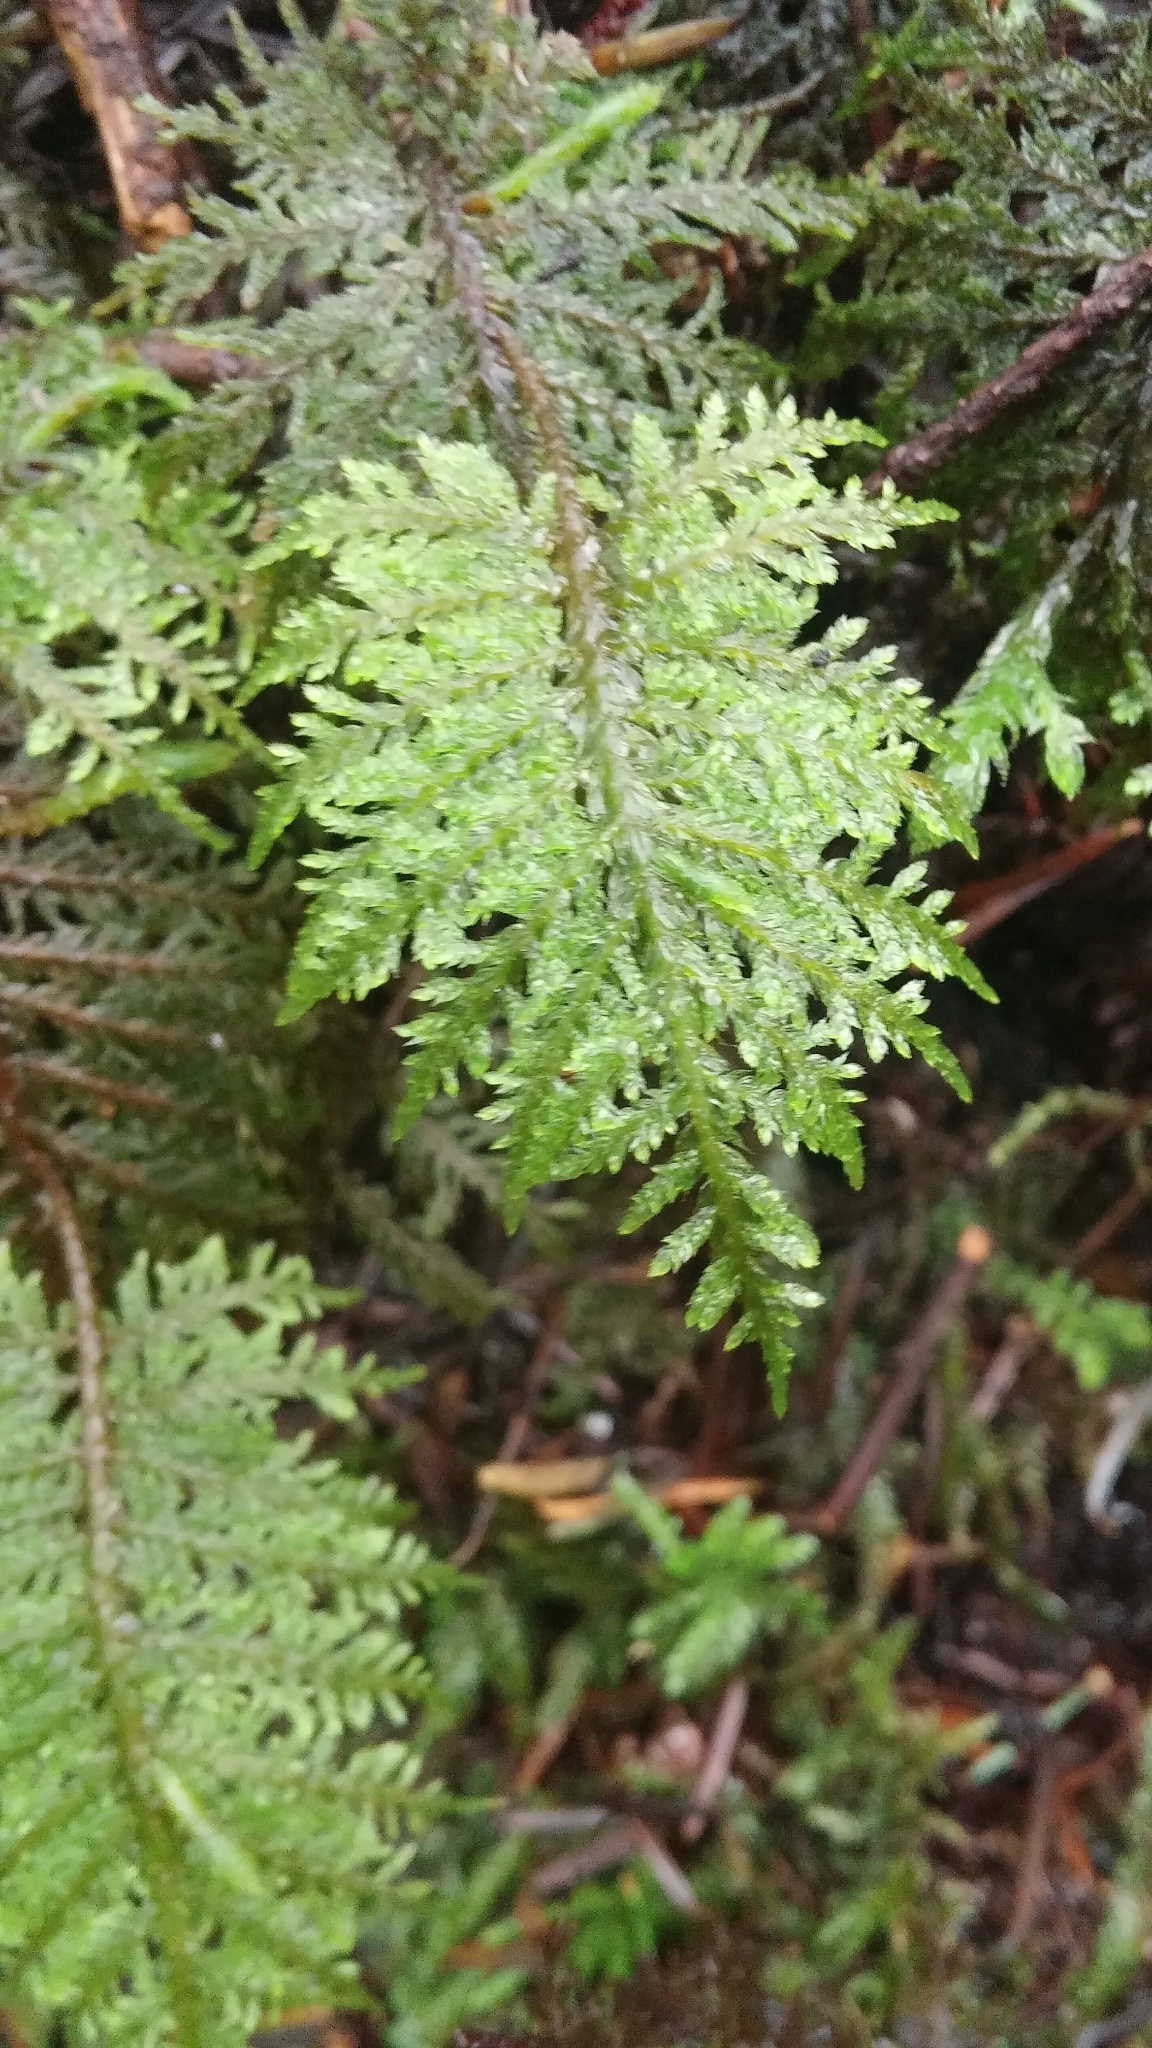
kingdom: Plantae
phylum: Bryophyta
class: Bryopsida
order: Hypnales
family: Hylocomiaceae
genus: Hylocomium
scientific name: Hylocomium splendens
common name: Stairstep moss
